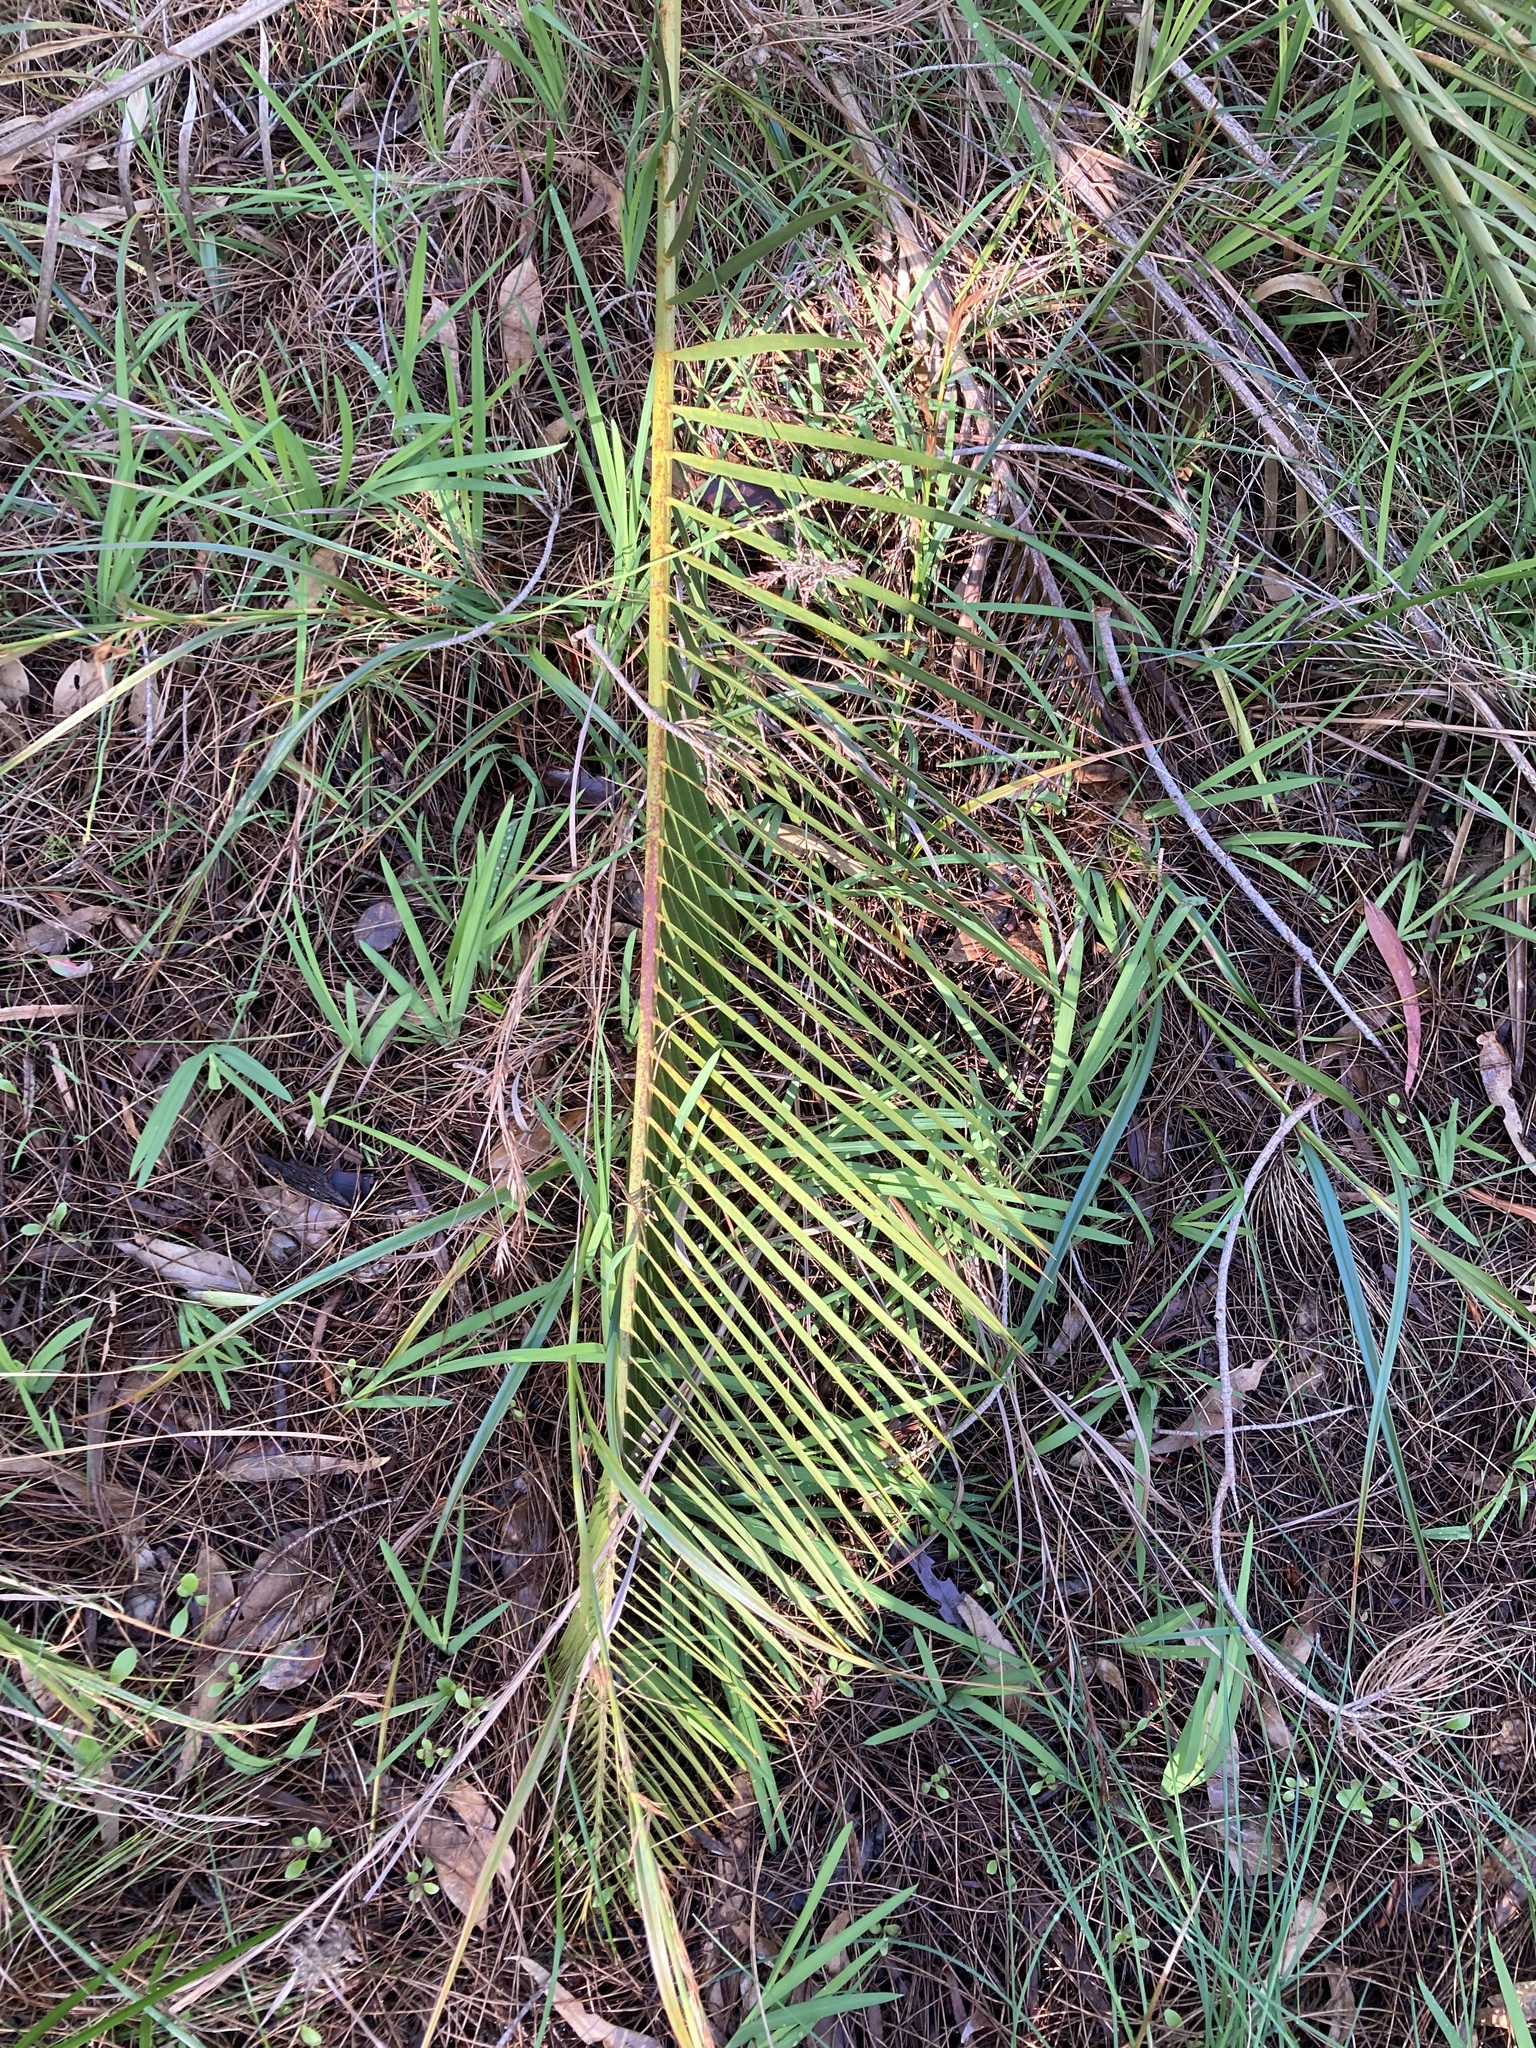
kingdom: Plantae
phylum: Tracheophyta
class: Cycadopsida
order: Cycadales
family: Zamiaceae
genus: Macrozamia
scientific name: Macrozamia fraseri
